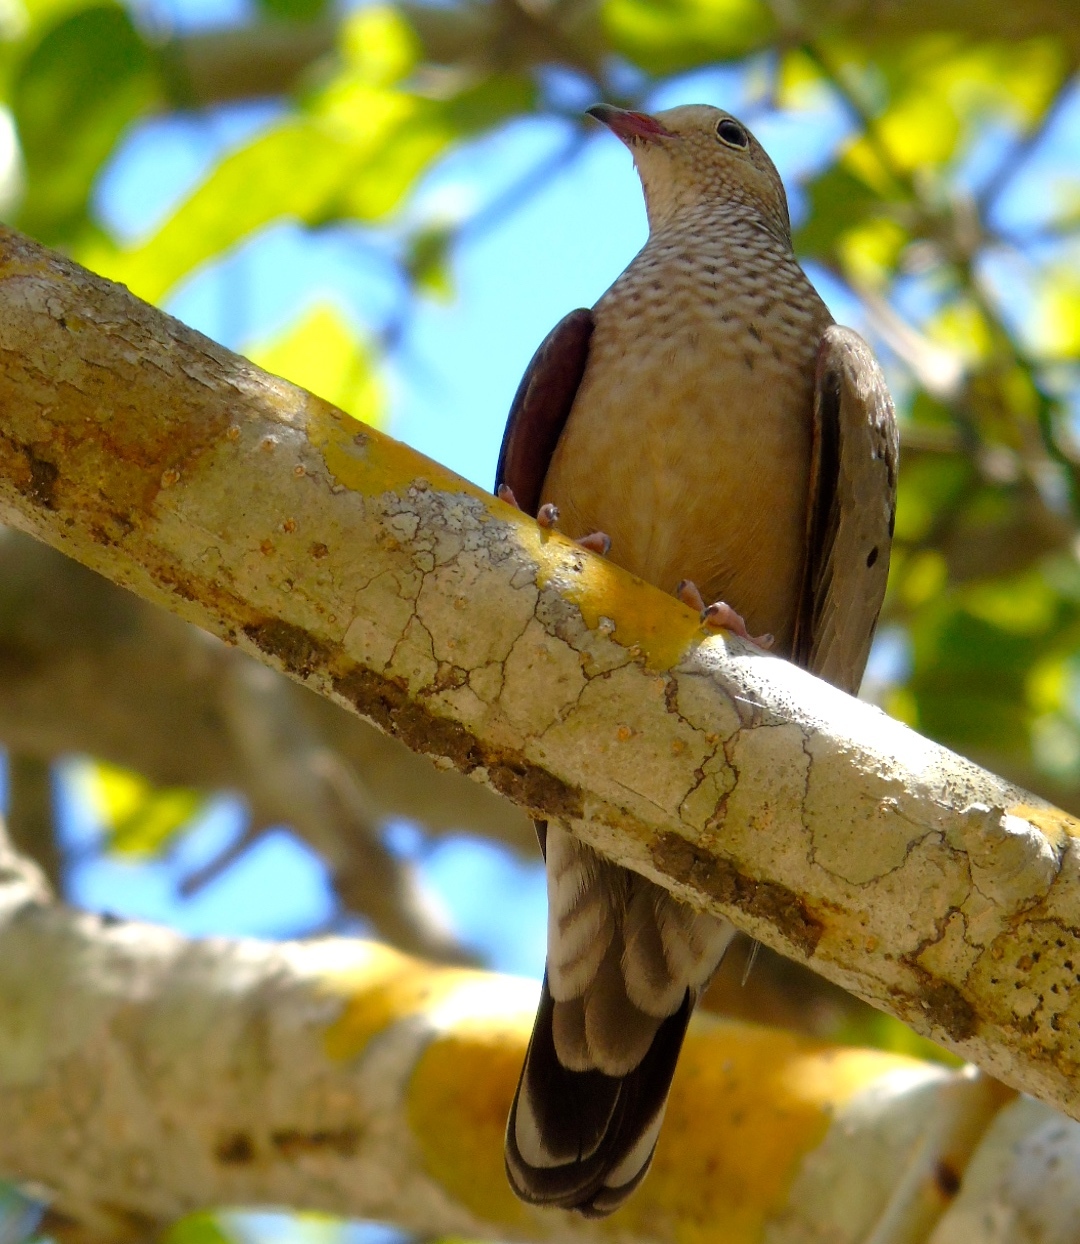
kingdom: Animalia
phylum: Chordata
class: Aves
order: Columbiformes
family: Columbidae
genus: Columbina
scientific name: Columbina passerina
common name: Common ground-dove
